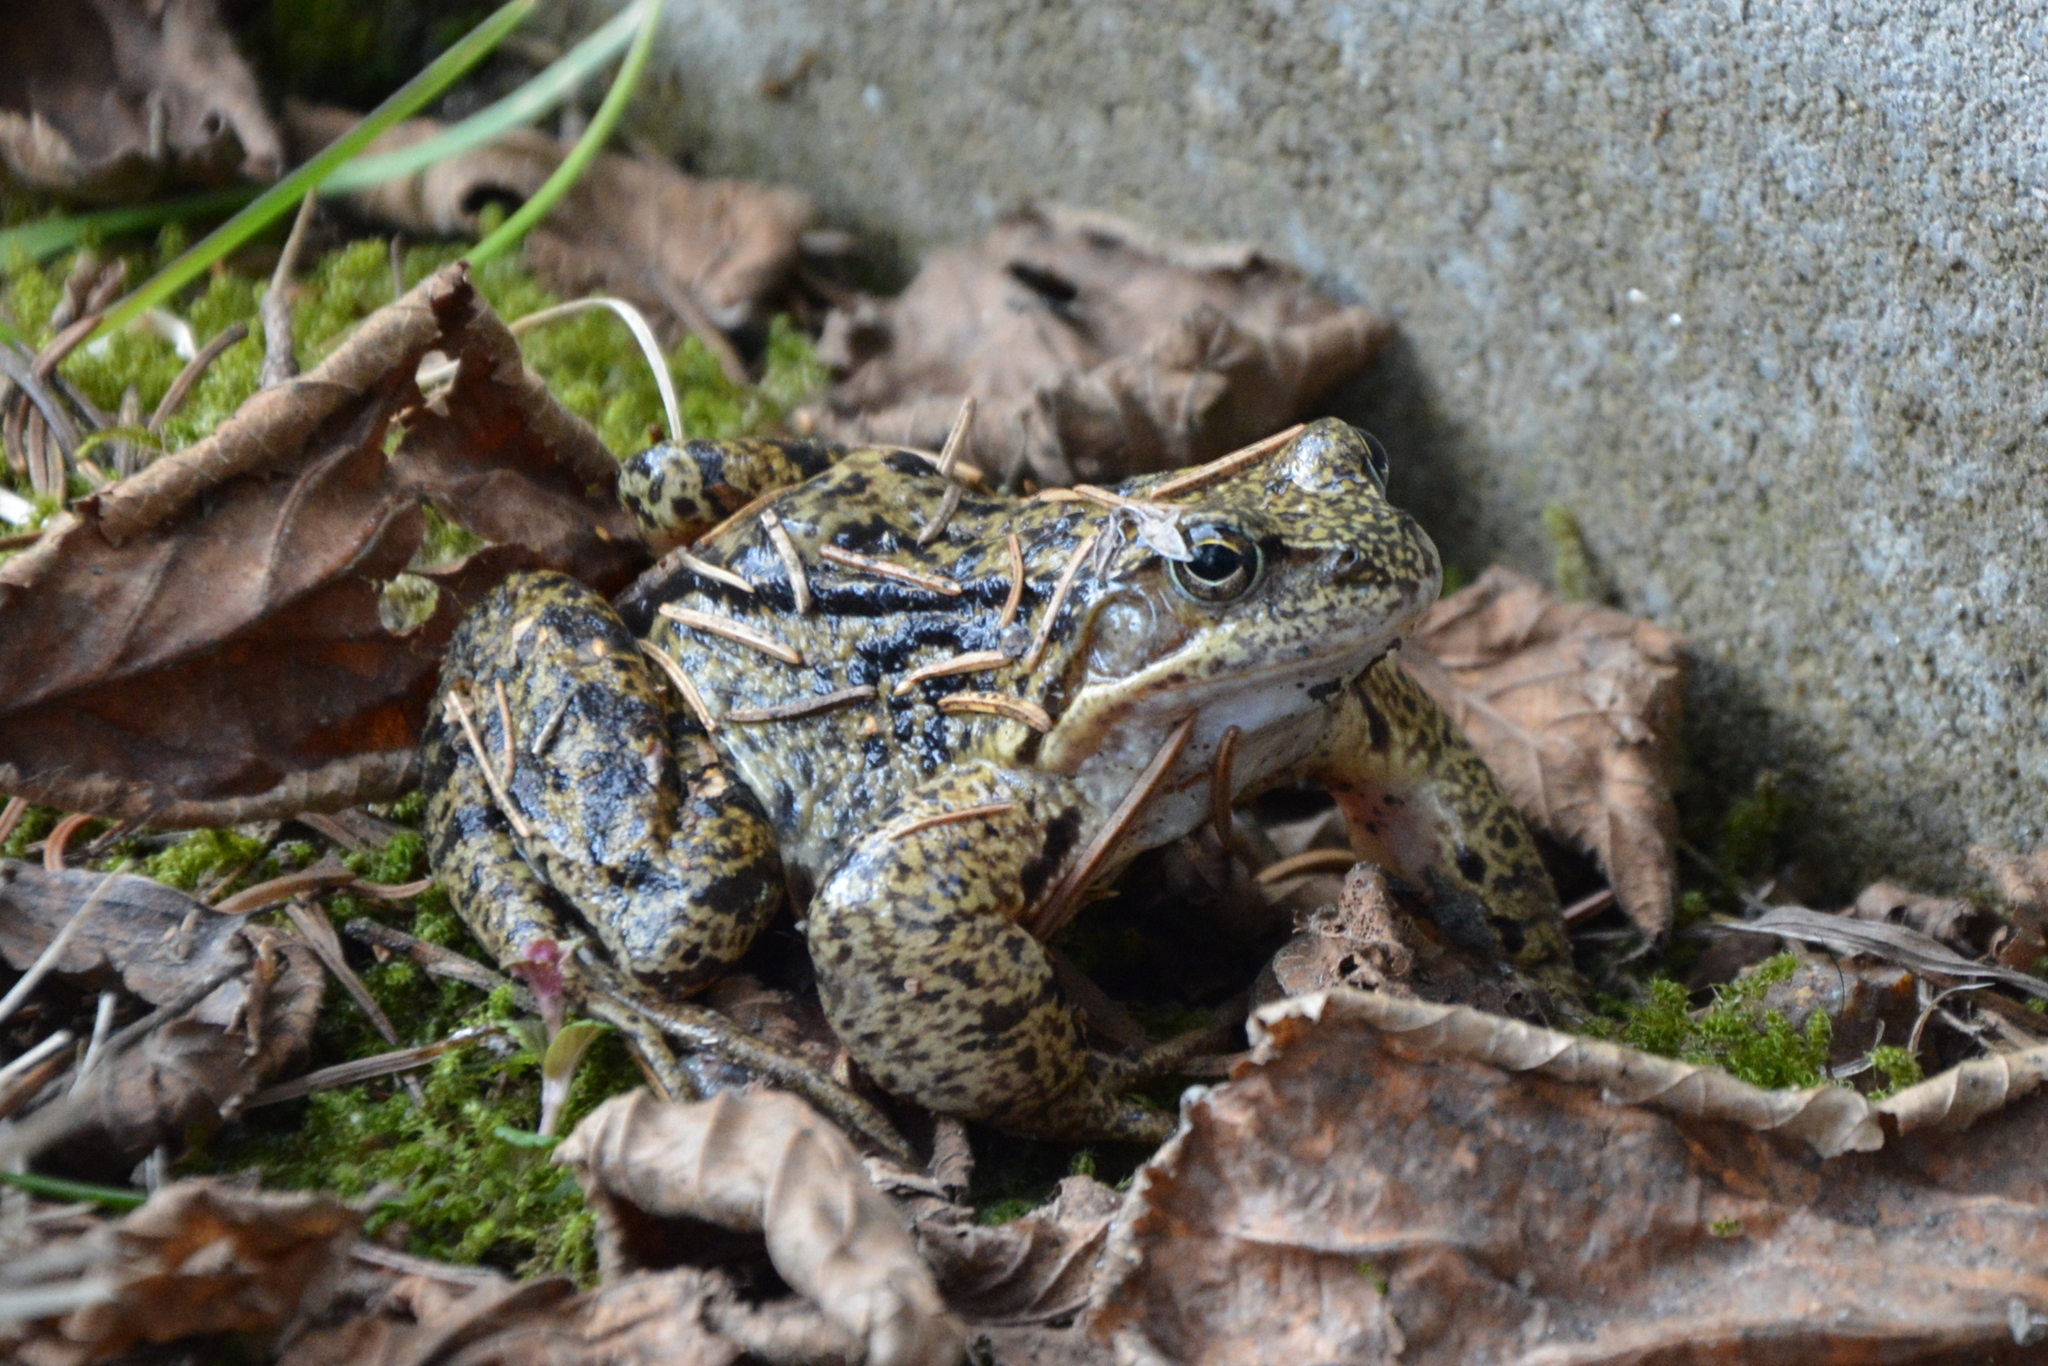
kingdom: Animalia
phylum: Chordata
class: Amphibia
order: Anura
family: Ranidae
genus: Rana
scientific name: Rana temporaria
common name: Common frog
